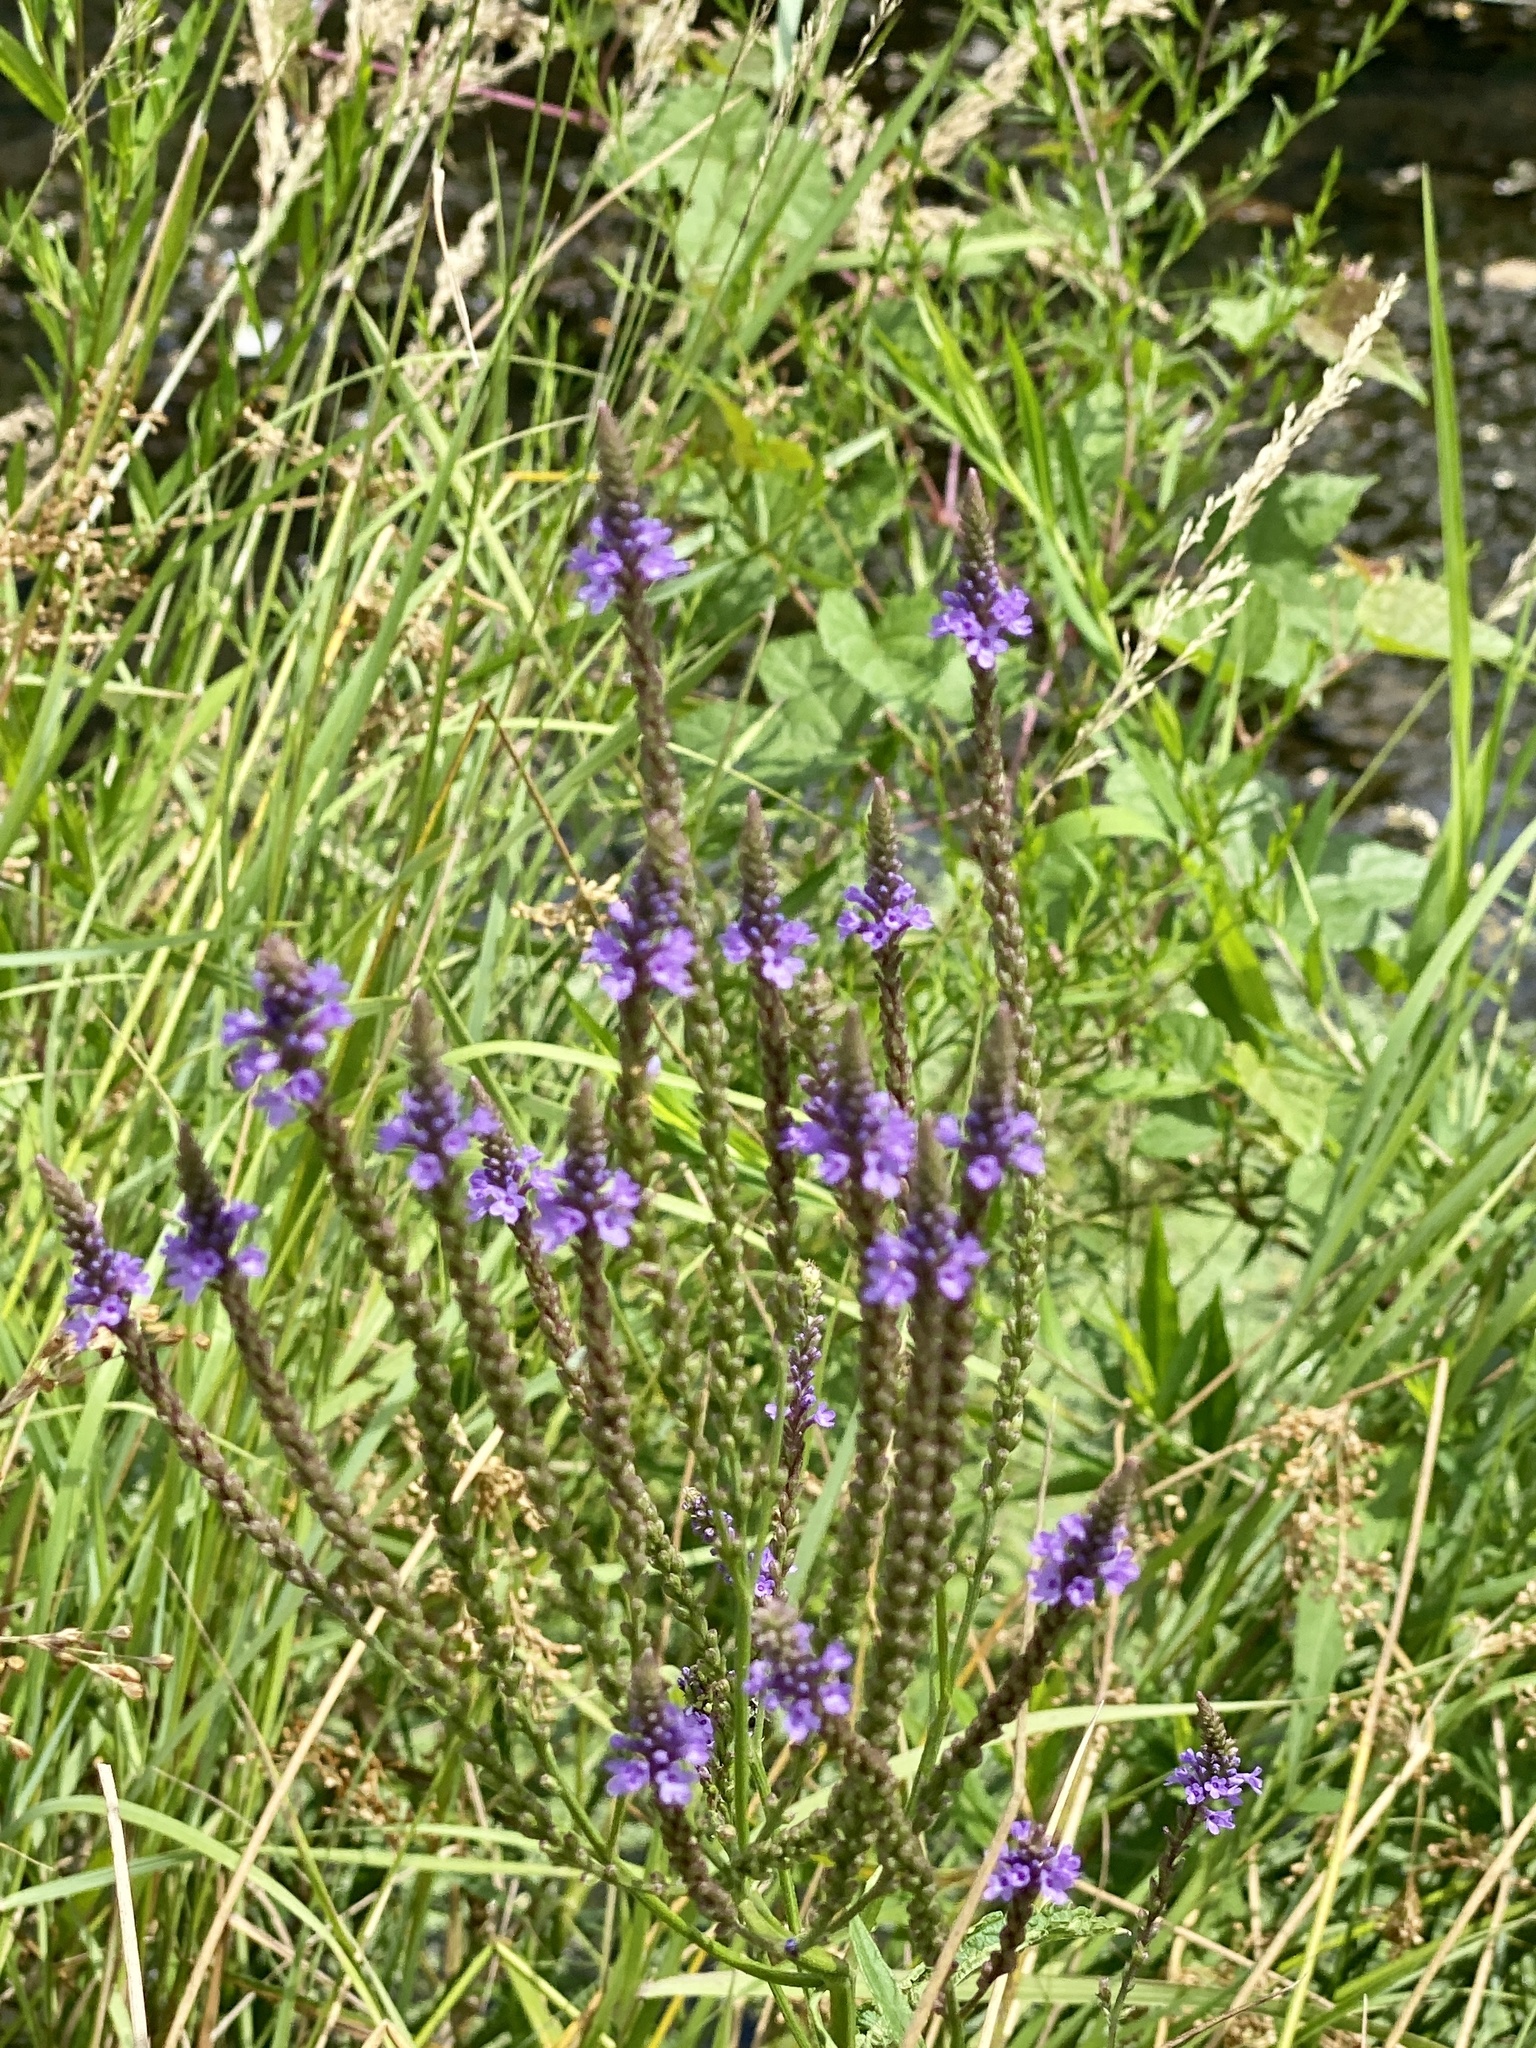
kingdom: Plantae
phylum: Tracheophyta
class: Magnoliopsida
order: Lamiales
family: Verbenaceae
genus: Verbena
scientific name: Verbena hastata
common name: American blue vervain
